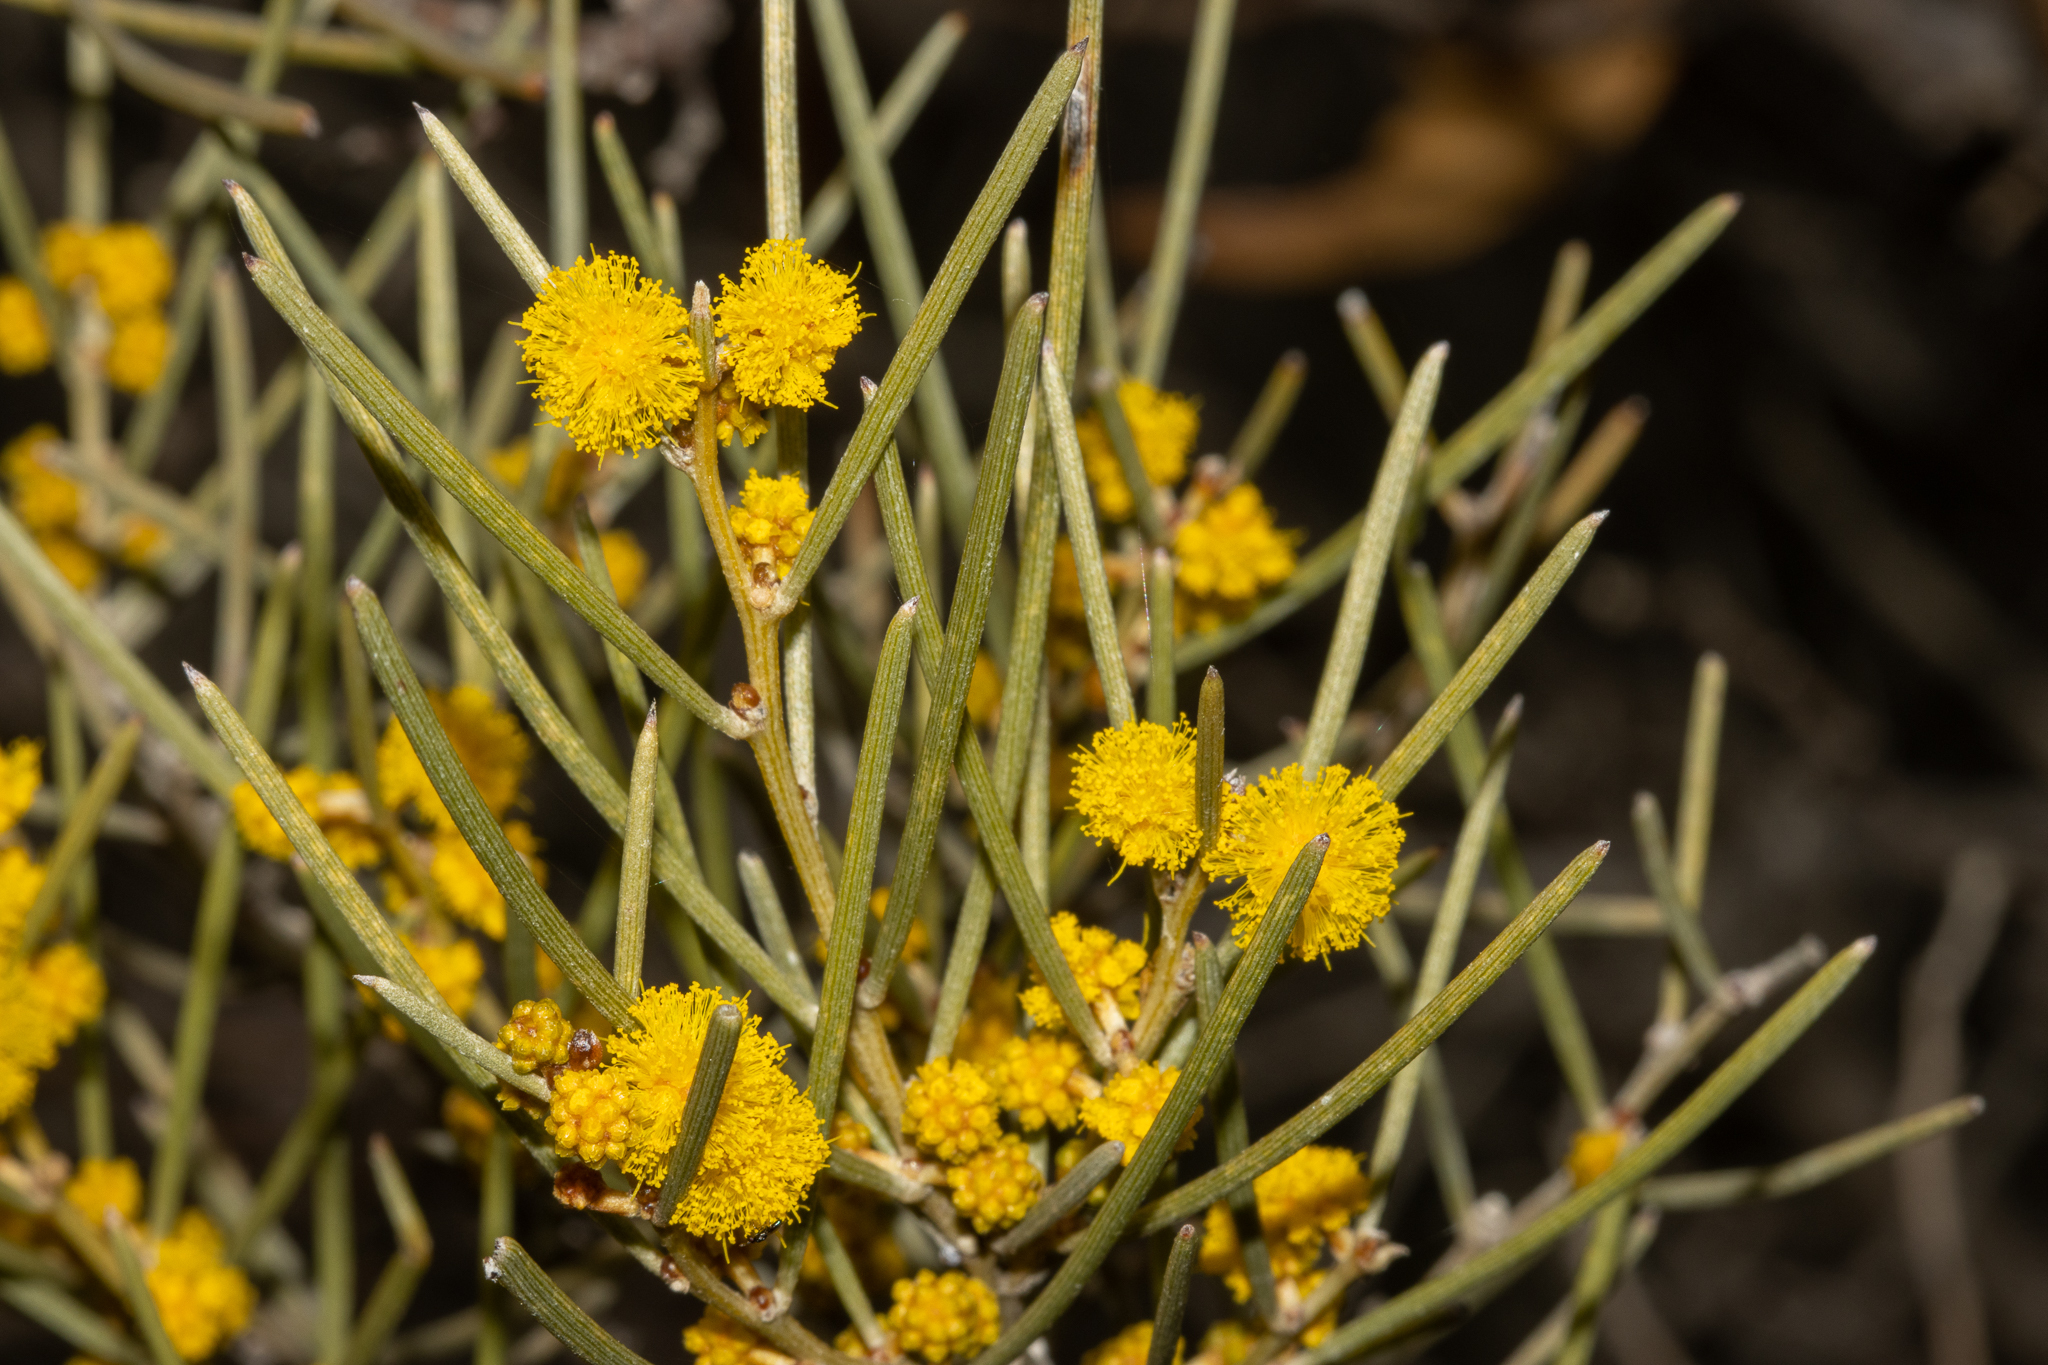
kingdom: Plantae
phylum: Tracheophyta
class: Magnoliopsida
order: Fabales
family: Fabaceae
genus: Acacia
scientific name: Acacia rigens
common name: Nealie
